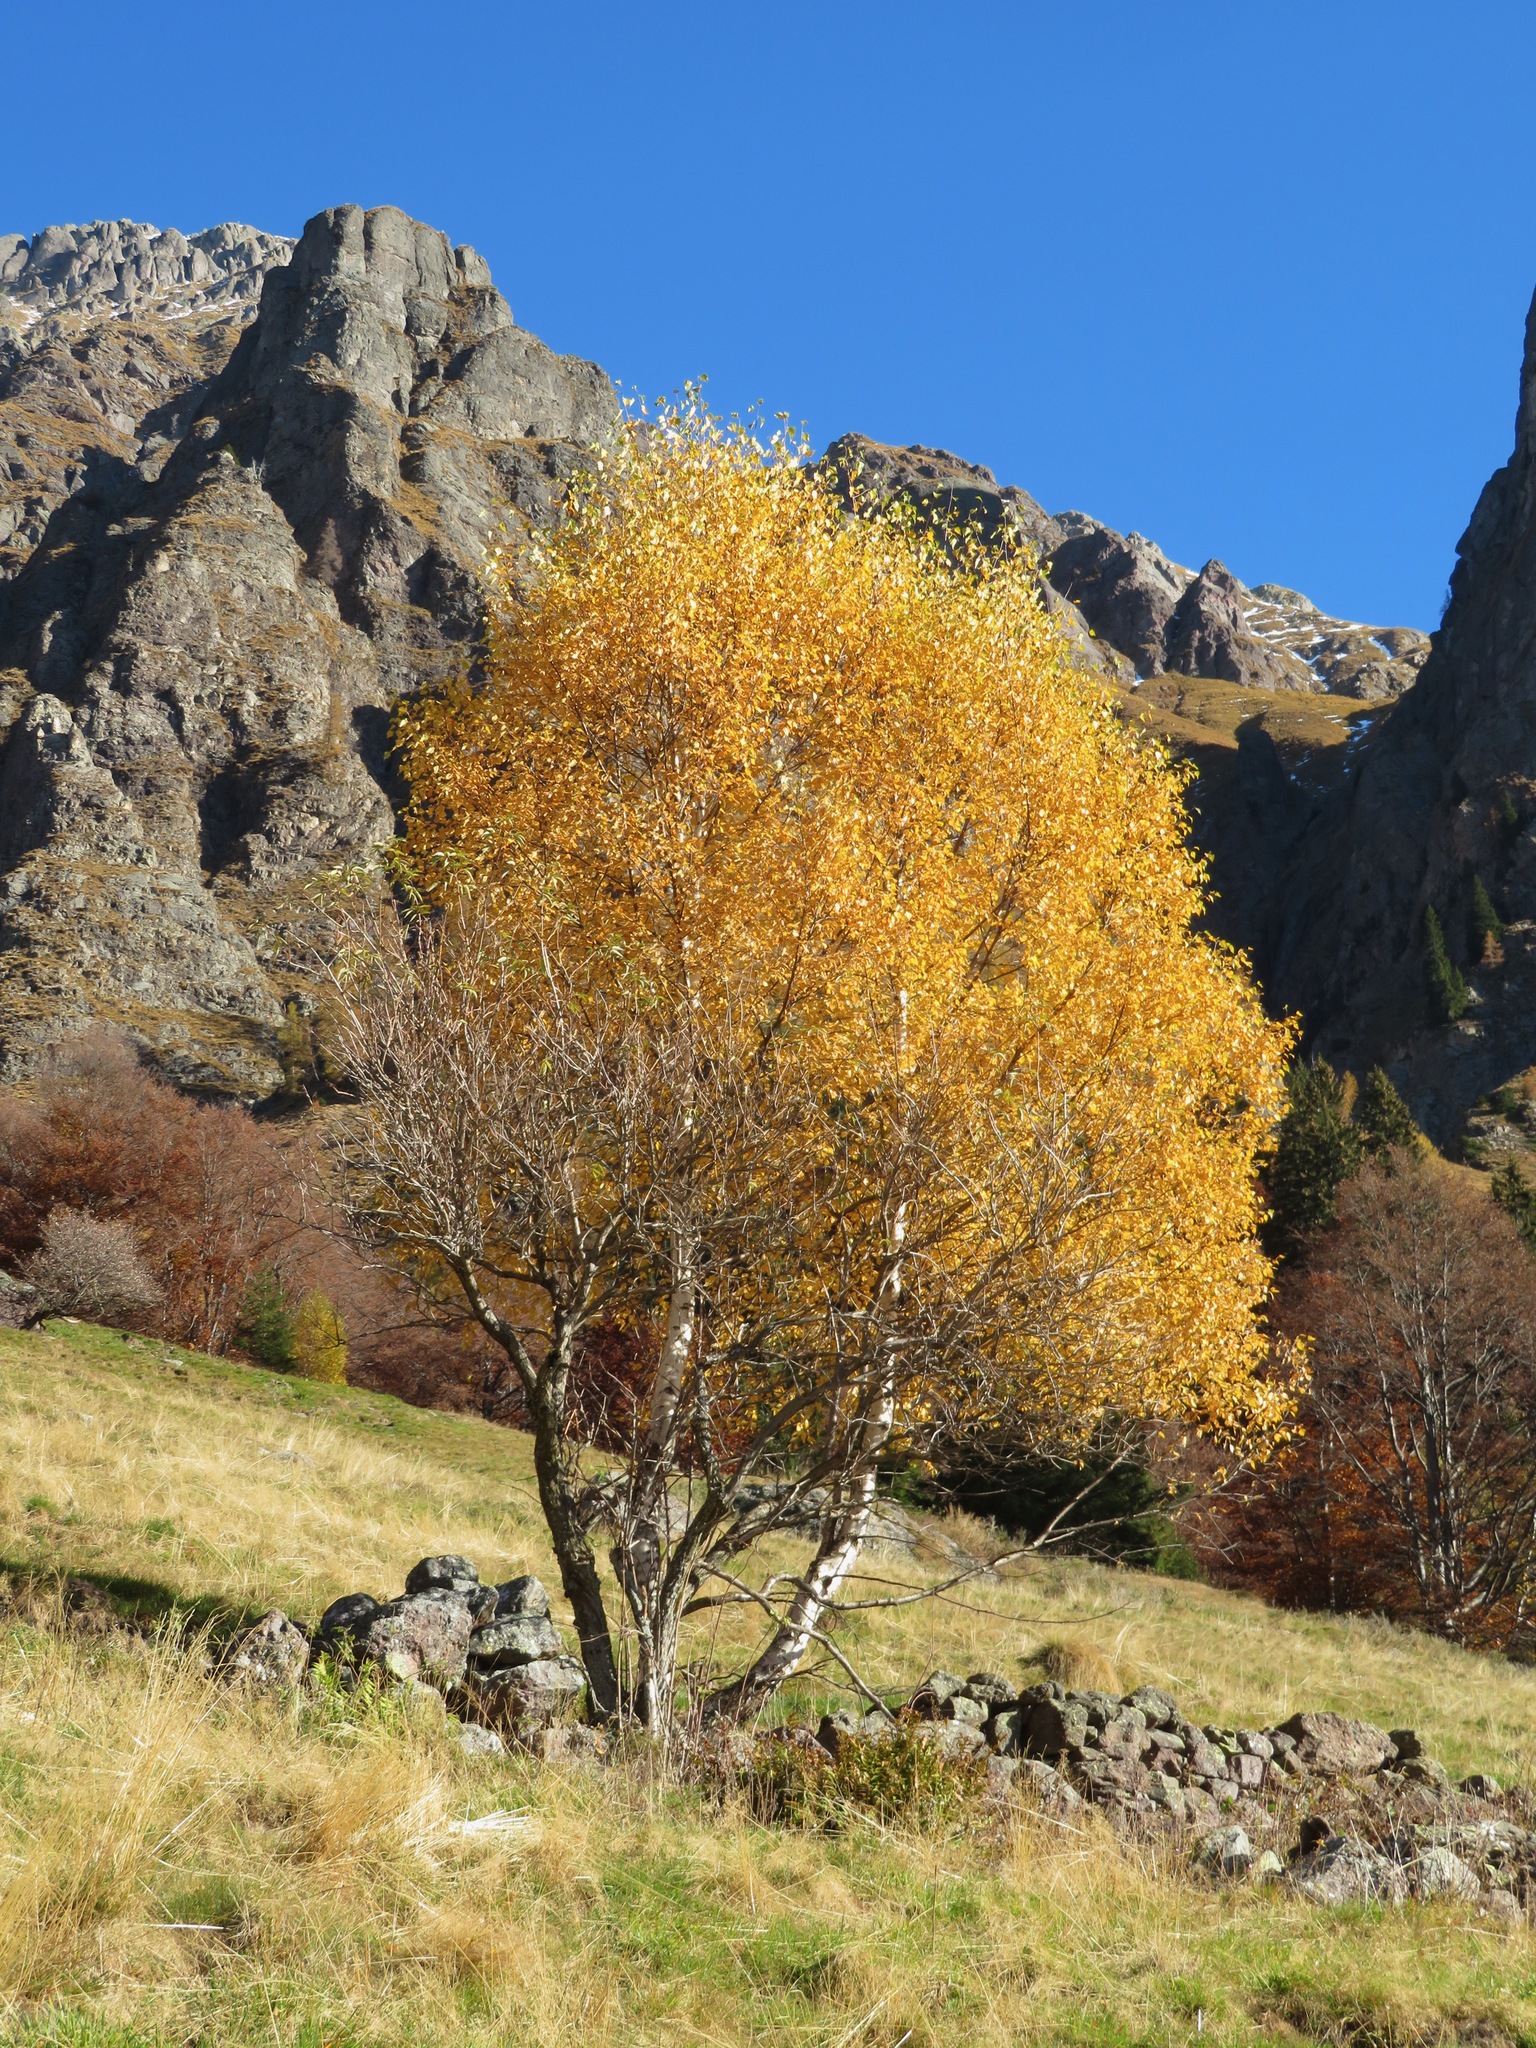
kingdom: Plantae
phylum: Tracheophyta
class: Magnoliopsida
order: Fagales
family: Betulaceae
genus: Betula
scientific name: Betula pendula
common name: Silver birch
